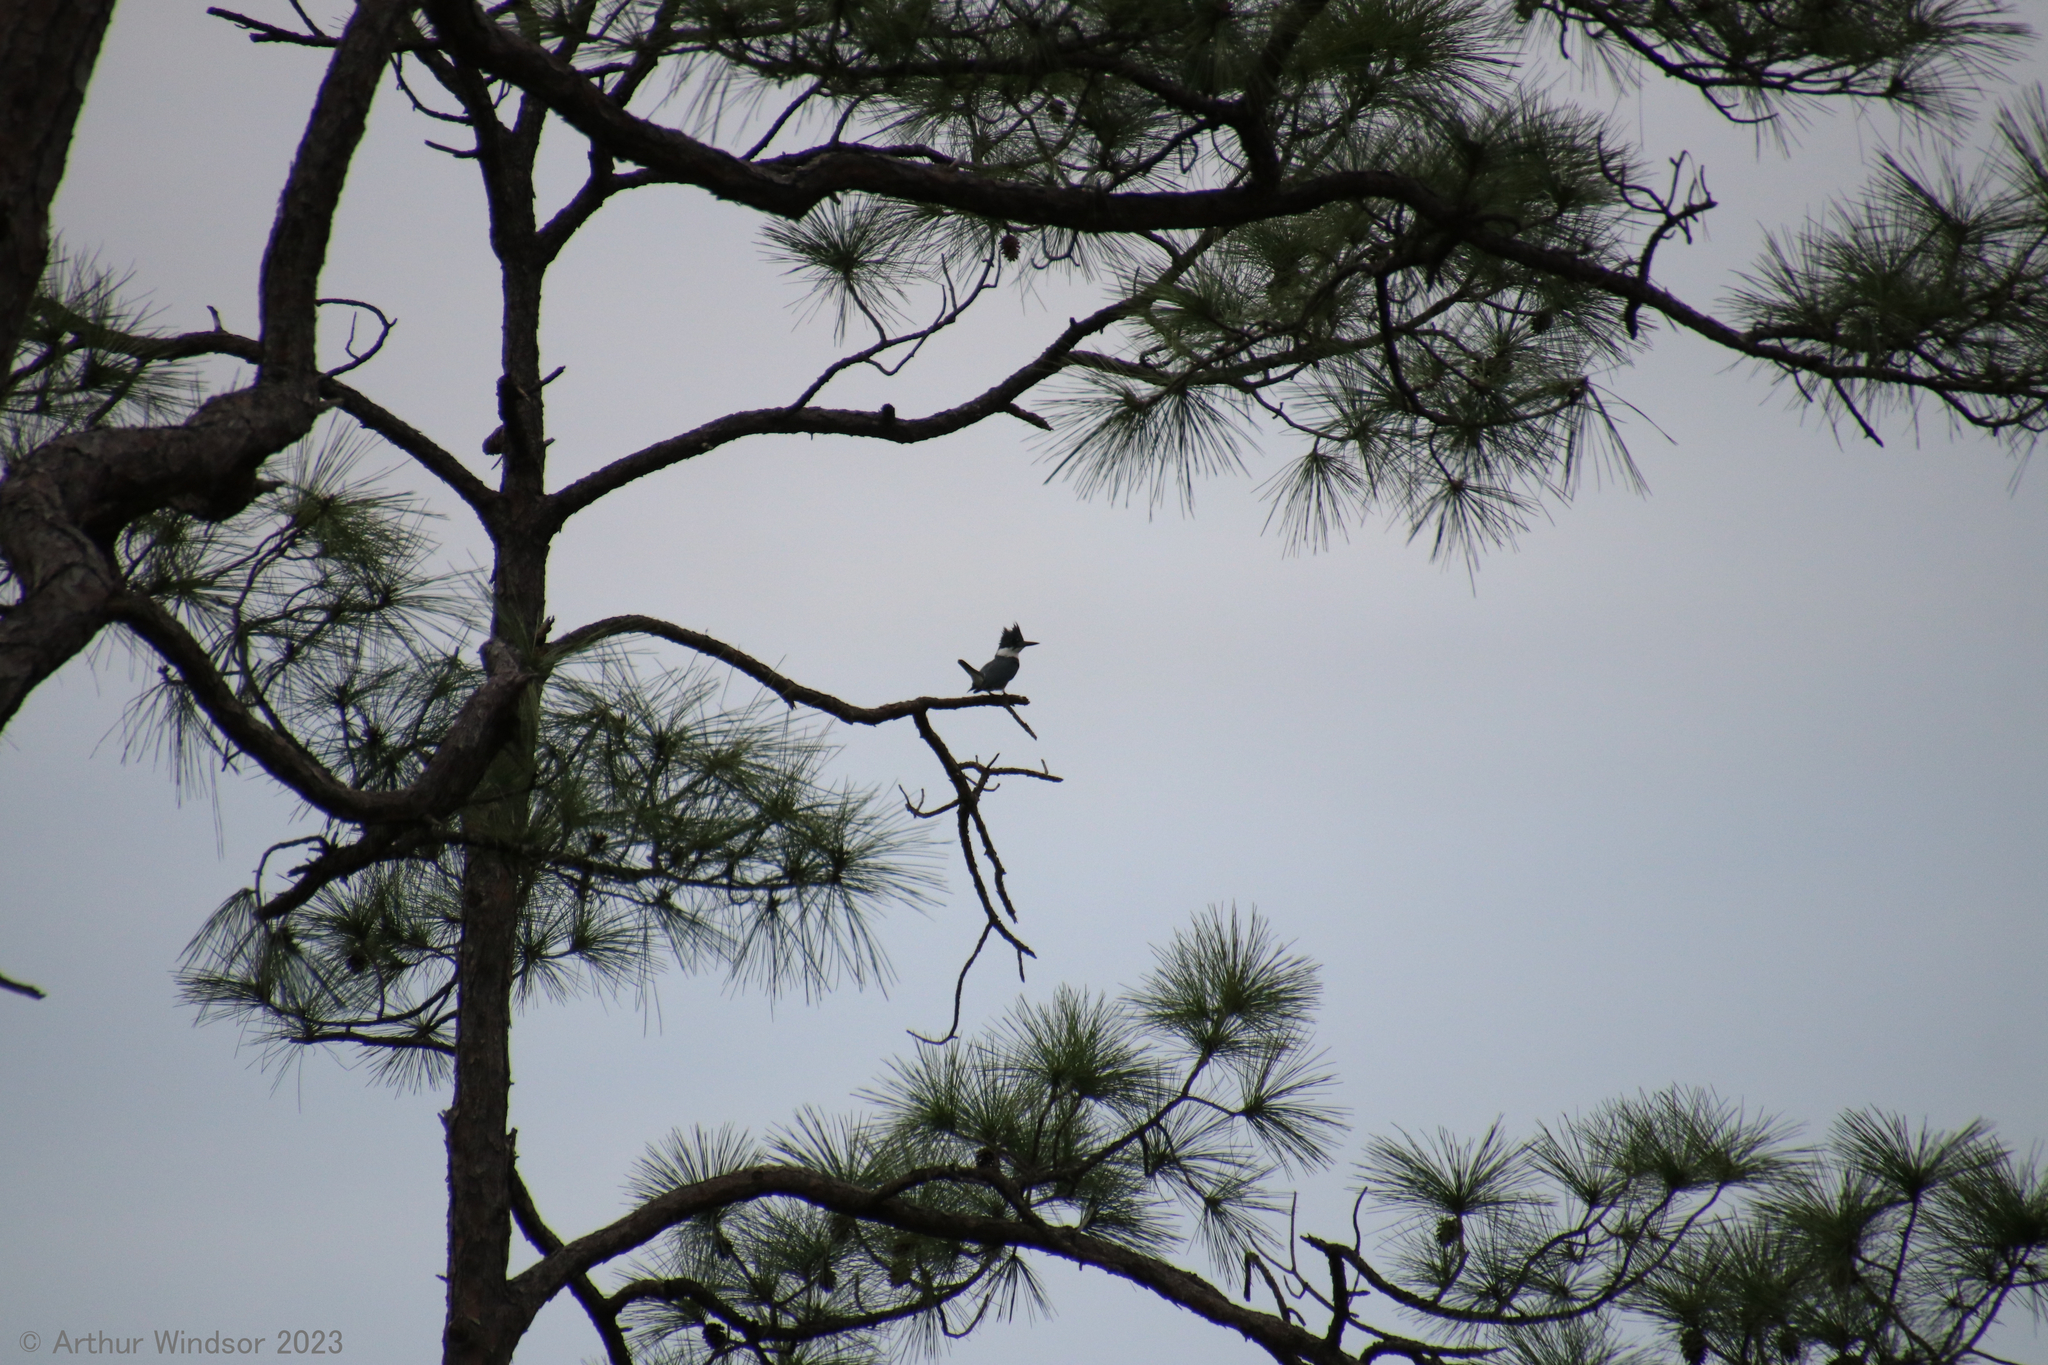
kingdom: Animalia
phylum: Chordata
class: Aves
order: Coraciiformes
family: Alcedinidae
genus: Megaceryle
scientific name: Megaceryle alcyon
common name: Belted kingfisher
